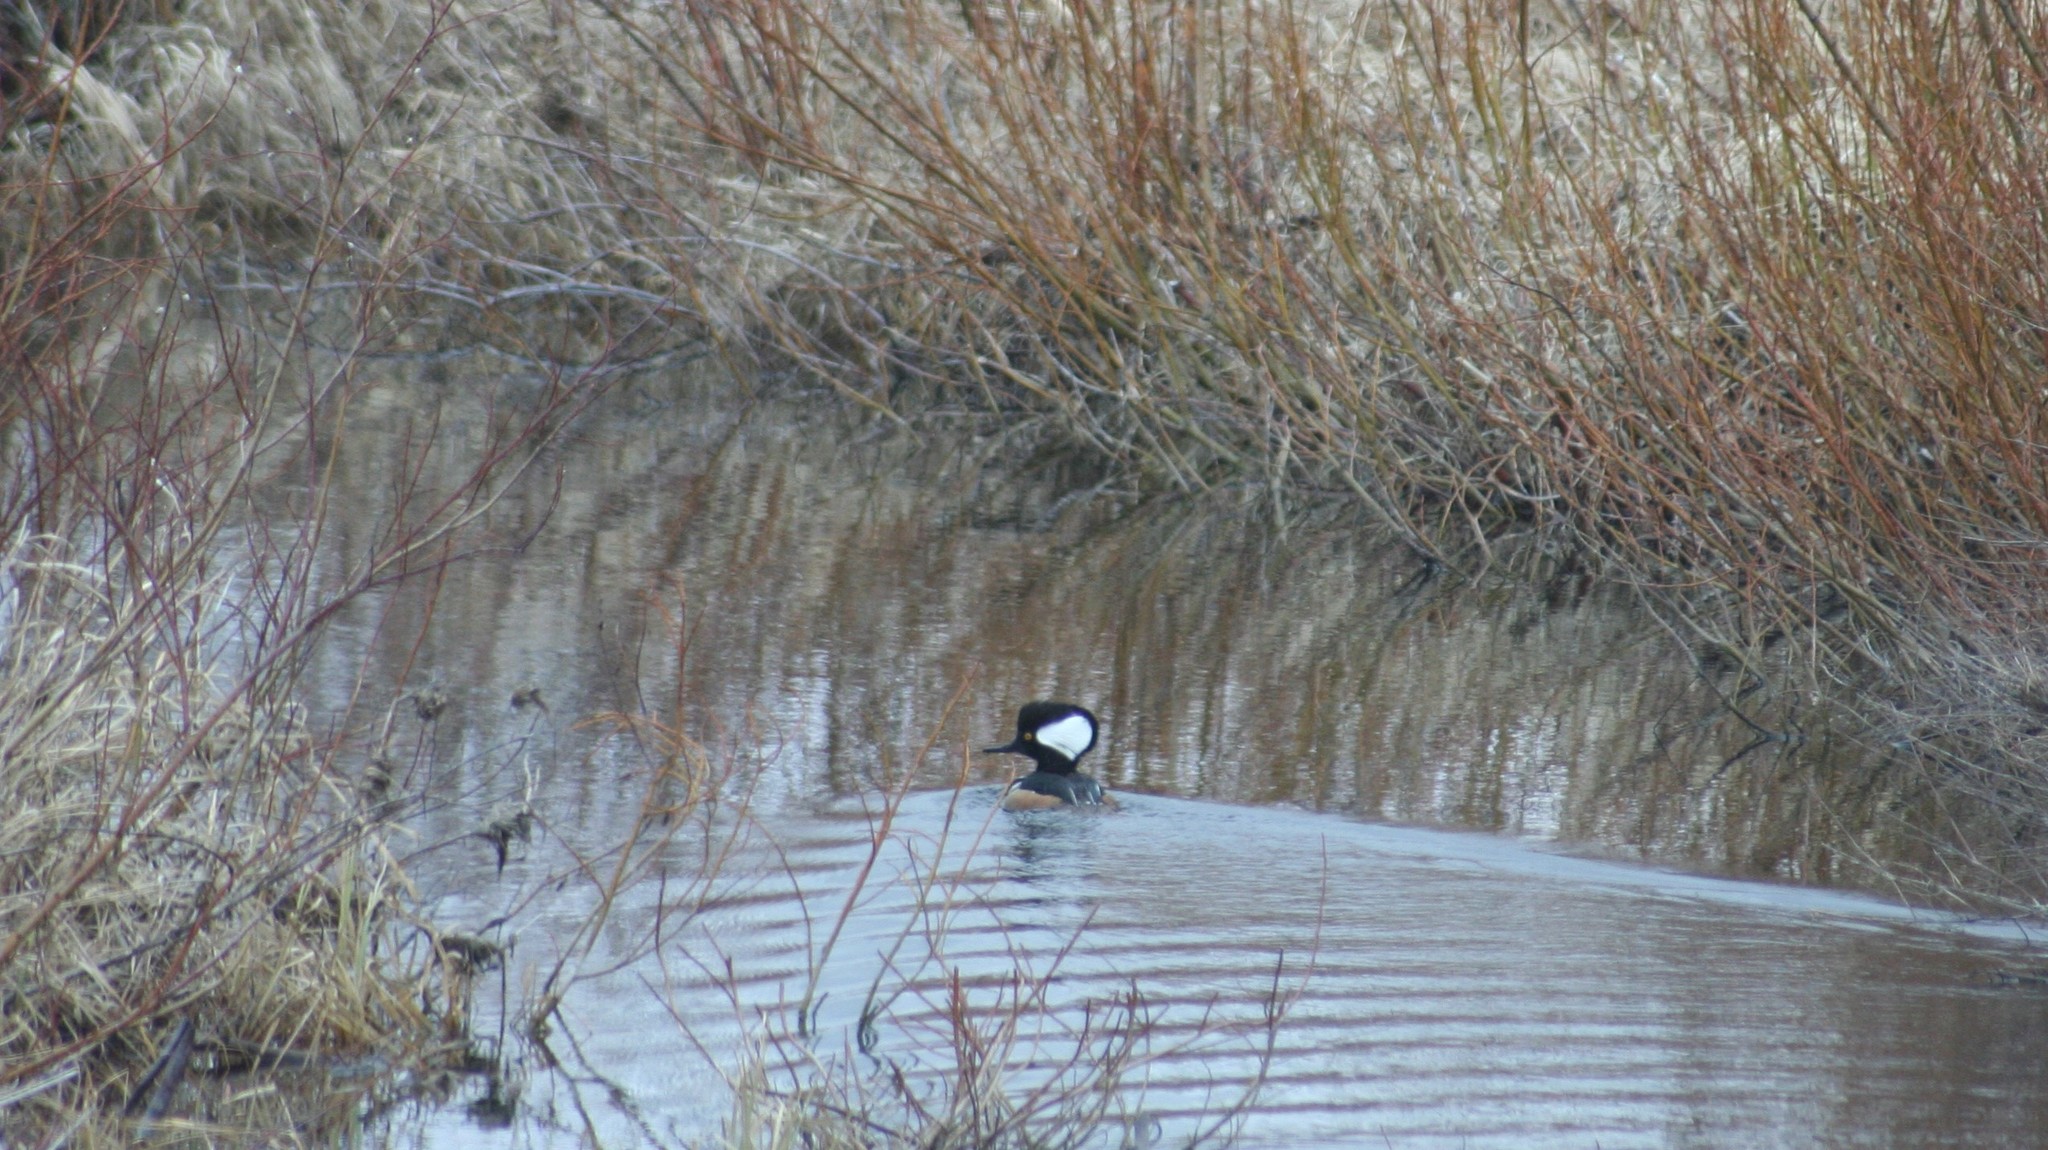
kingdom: Animalia
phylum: Chordata
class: Aves
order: Anseriformes
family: Anatidae
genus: Lophodytes
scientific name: Lophodytes cucullatus
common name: Hooded merganser
